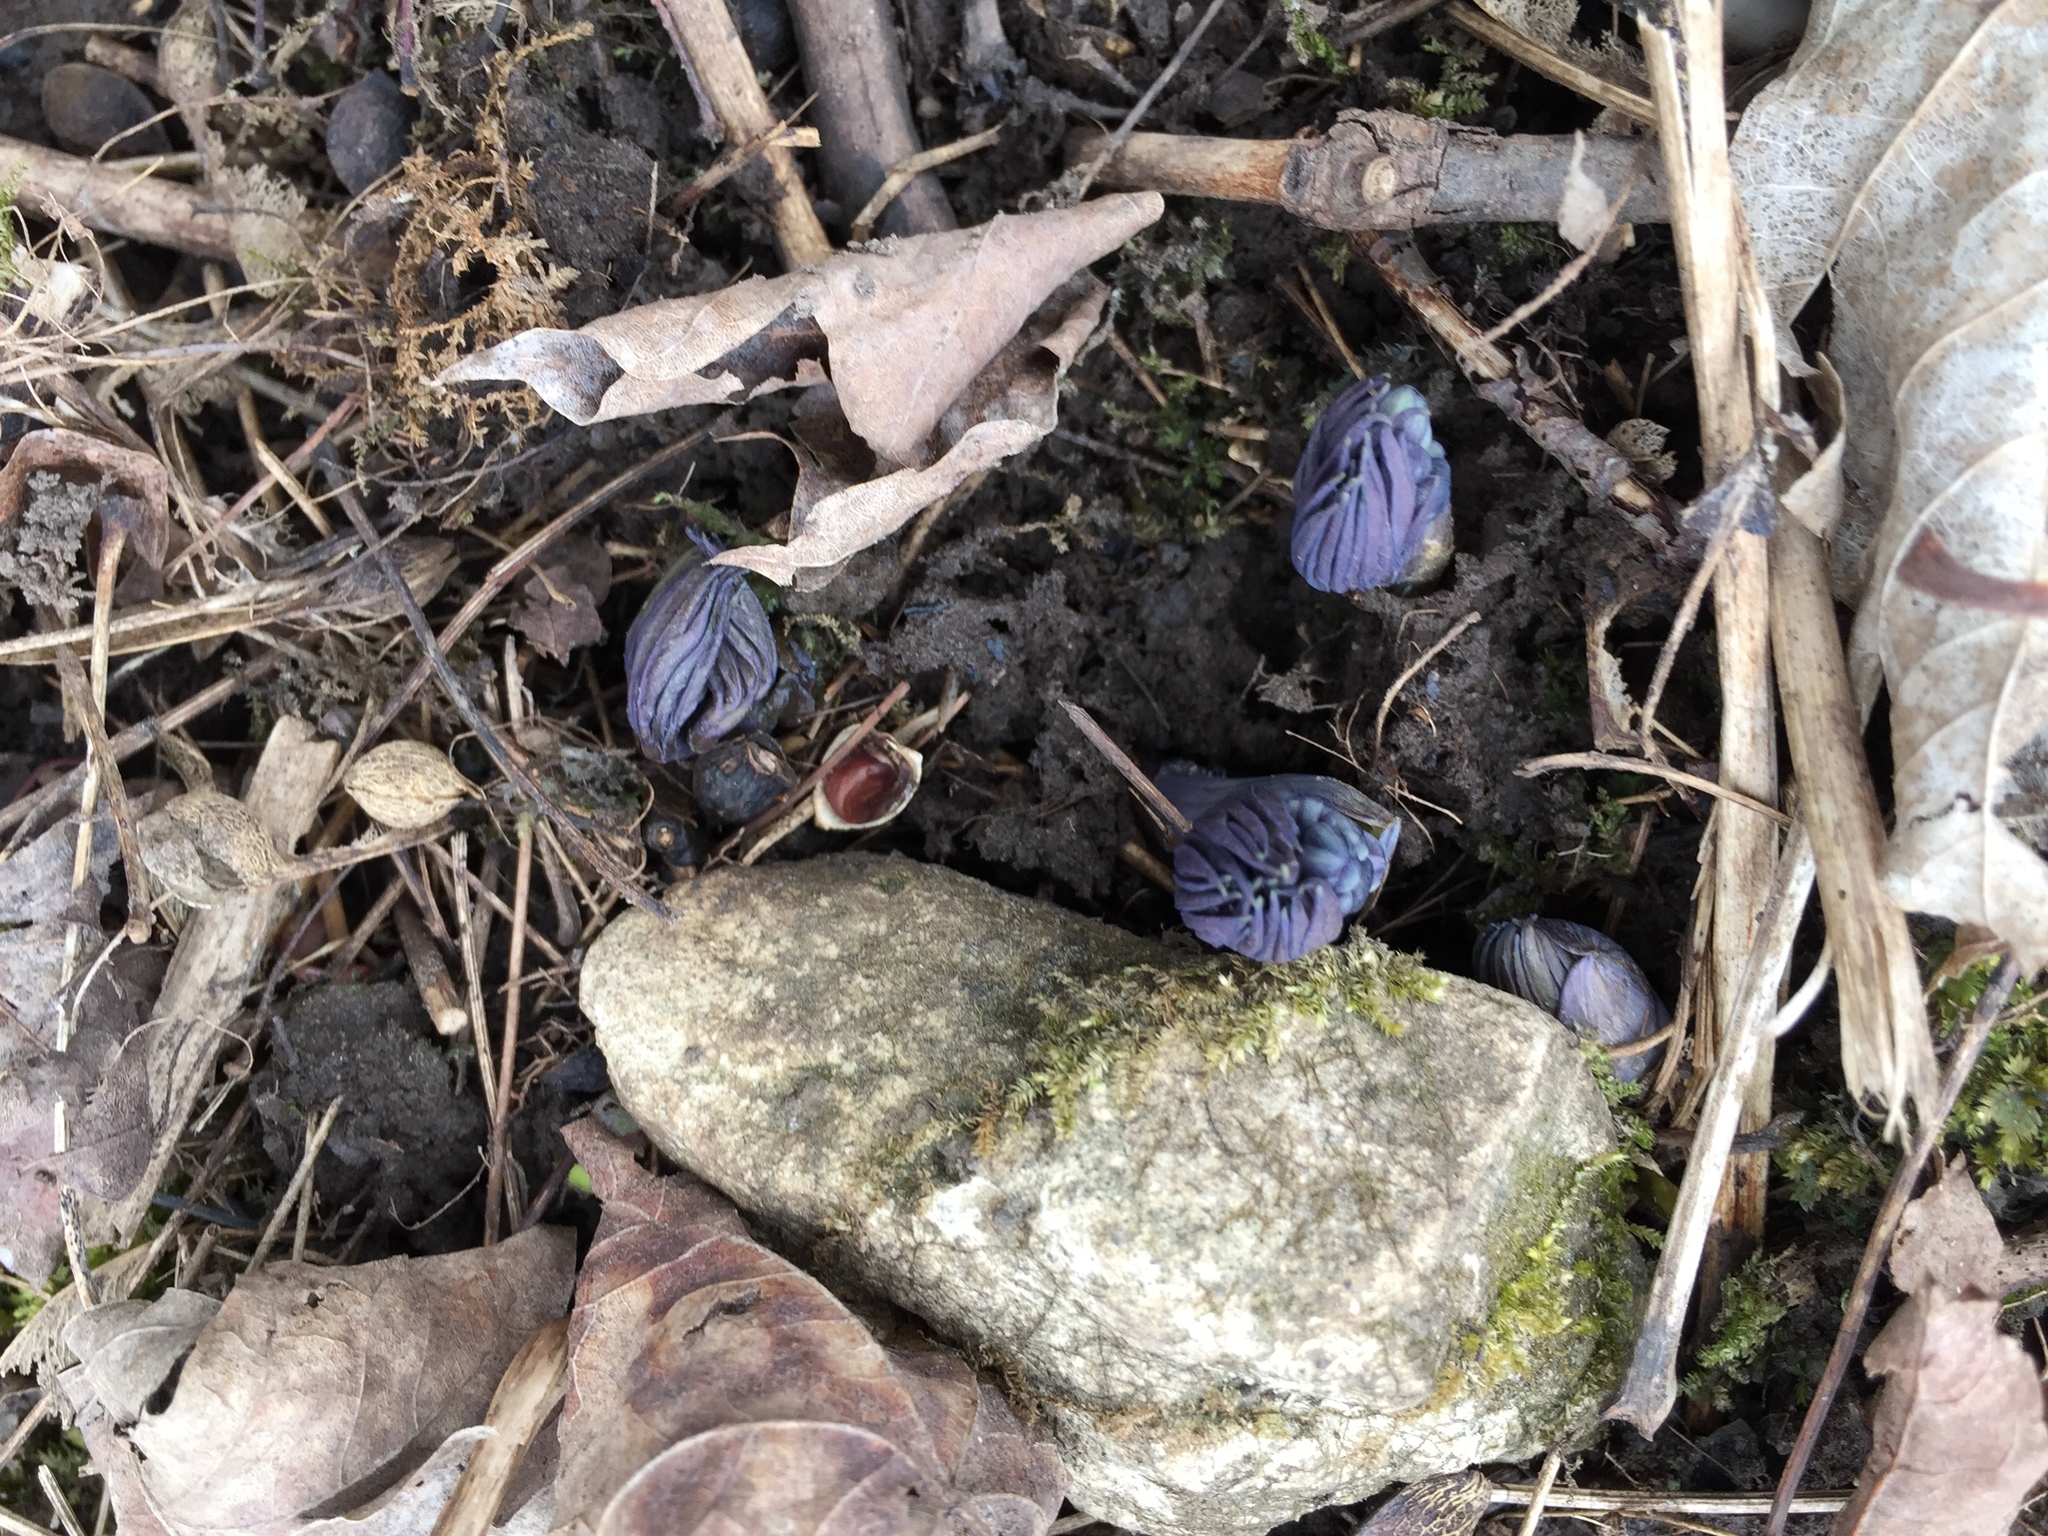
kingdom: Plantae
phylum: Tracheophyta
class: Magnoliopsida
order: Ranunculales
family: Berberidaceae
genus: Caulophyllum
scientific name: Caulophyllum
